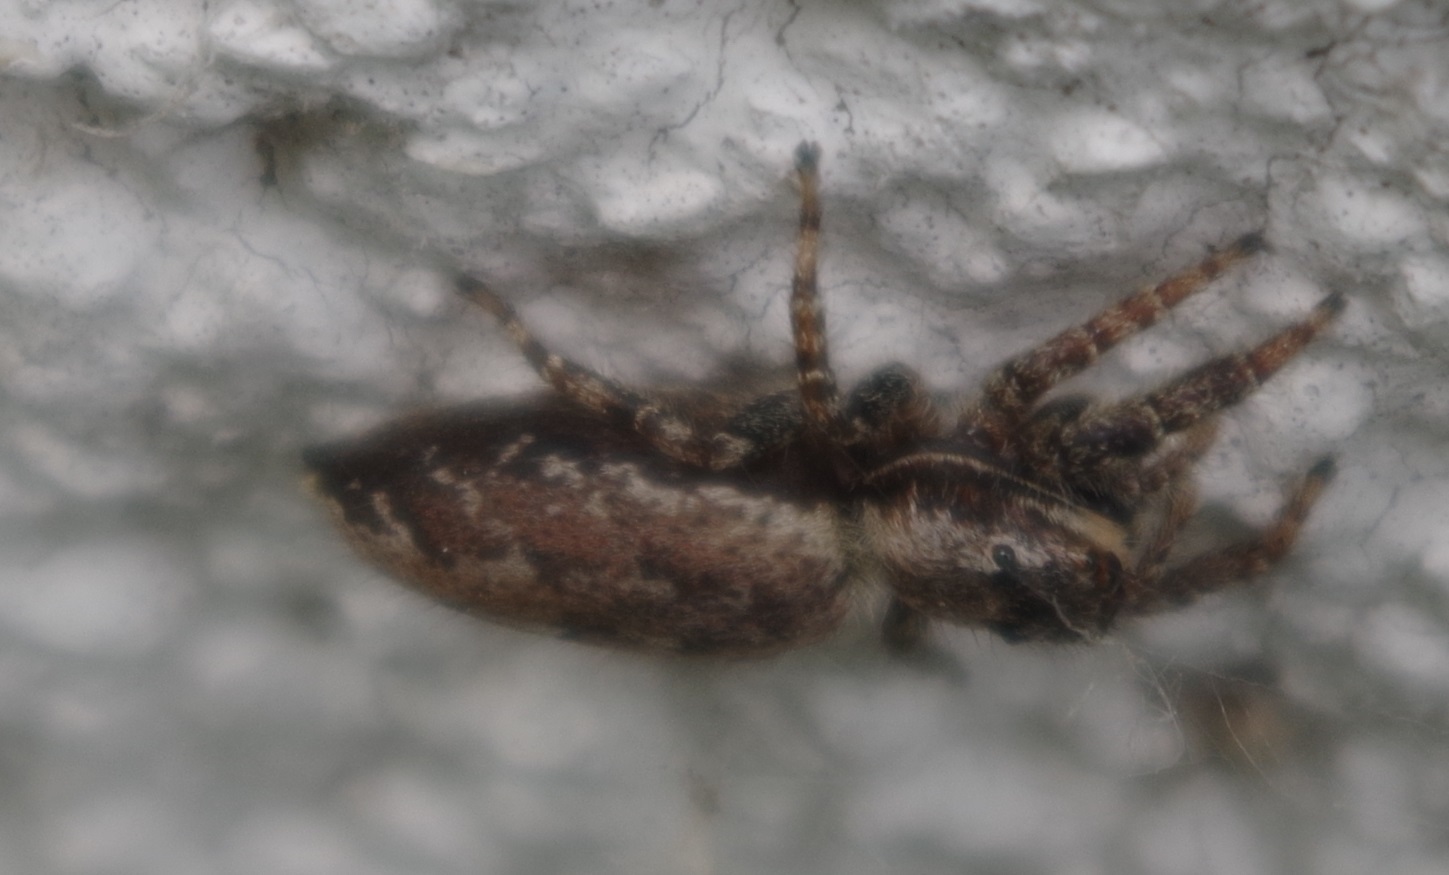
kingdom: Animalia
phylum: Arthropoda
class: Arachnida
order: Araneae
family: Salticidae
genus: Marpissa
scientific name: Marpissa muscosa
